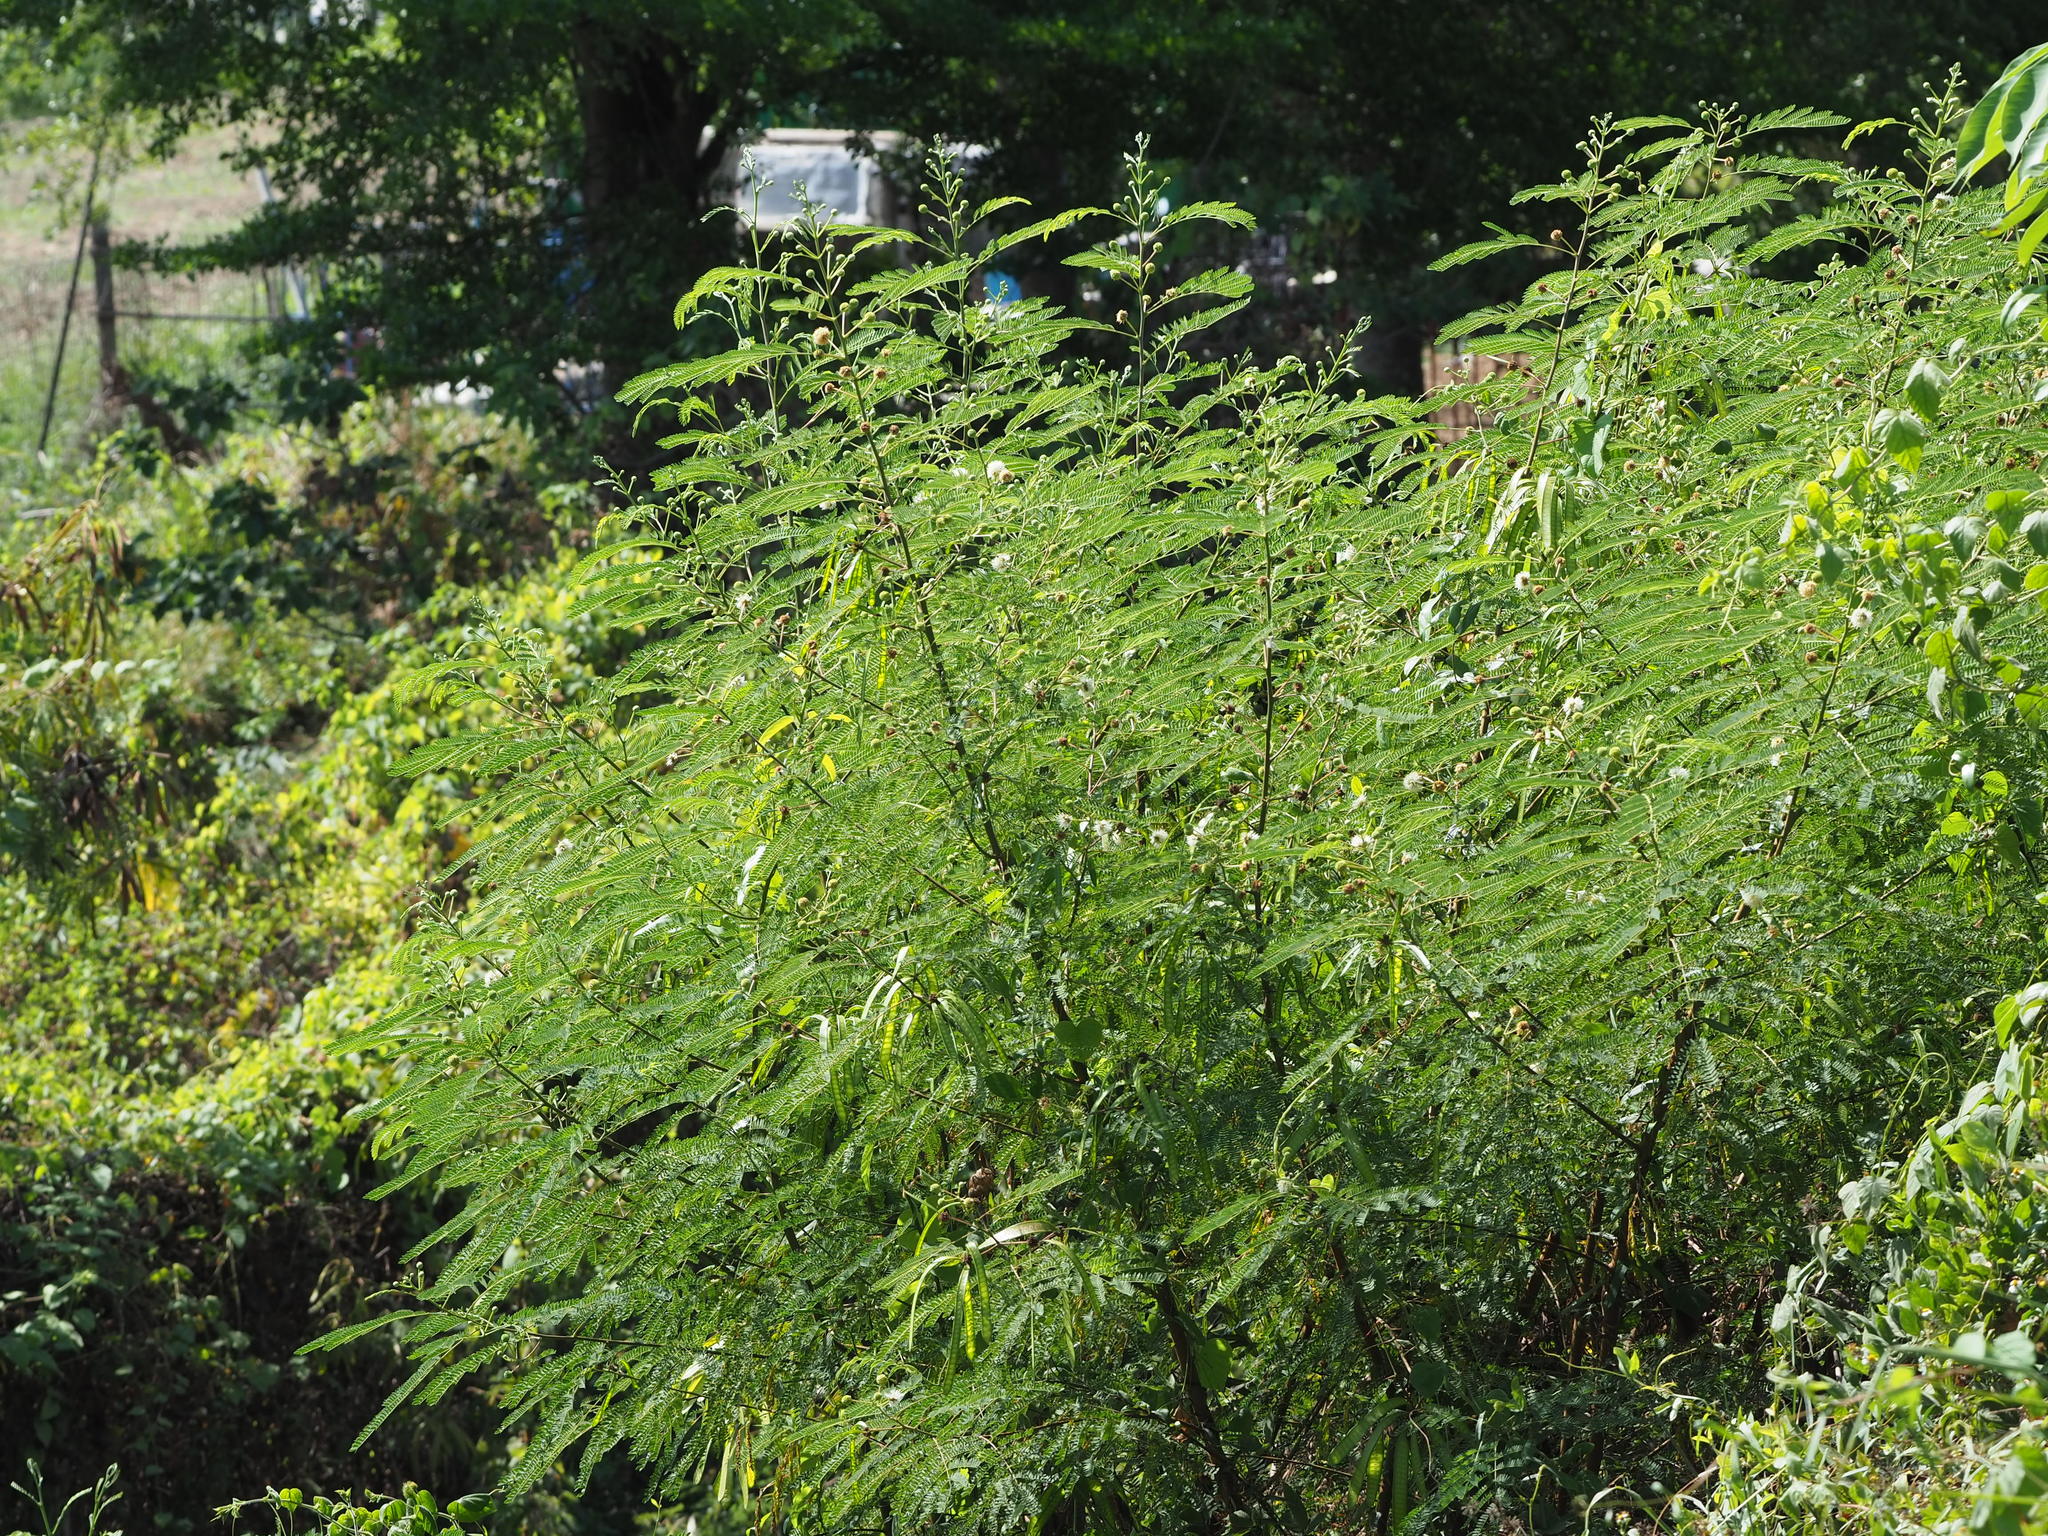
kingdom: Plantae
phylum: Tracheophyta
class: Magnoliopsida
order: Fabales
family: Fabaceae
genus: Leucaena
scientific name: Leucaena leucocephala
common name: White leadtree
